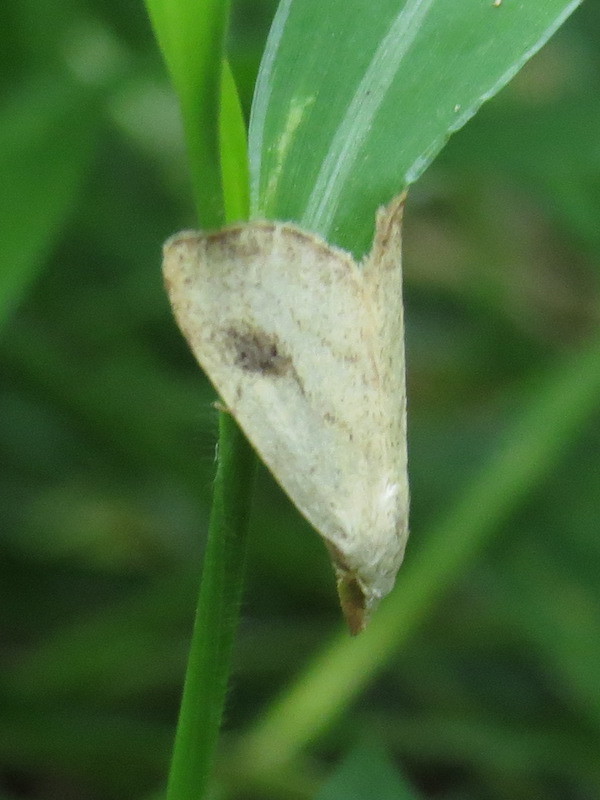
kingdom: Animalia
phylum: Arthropoda
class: Insecta
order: Lepidoptera
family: Erebidae
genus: Rivula
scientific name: Rivula propinqualis
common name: Spotted grass moth
